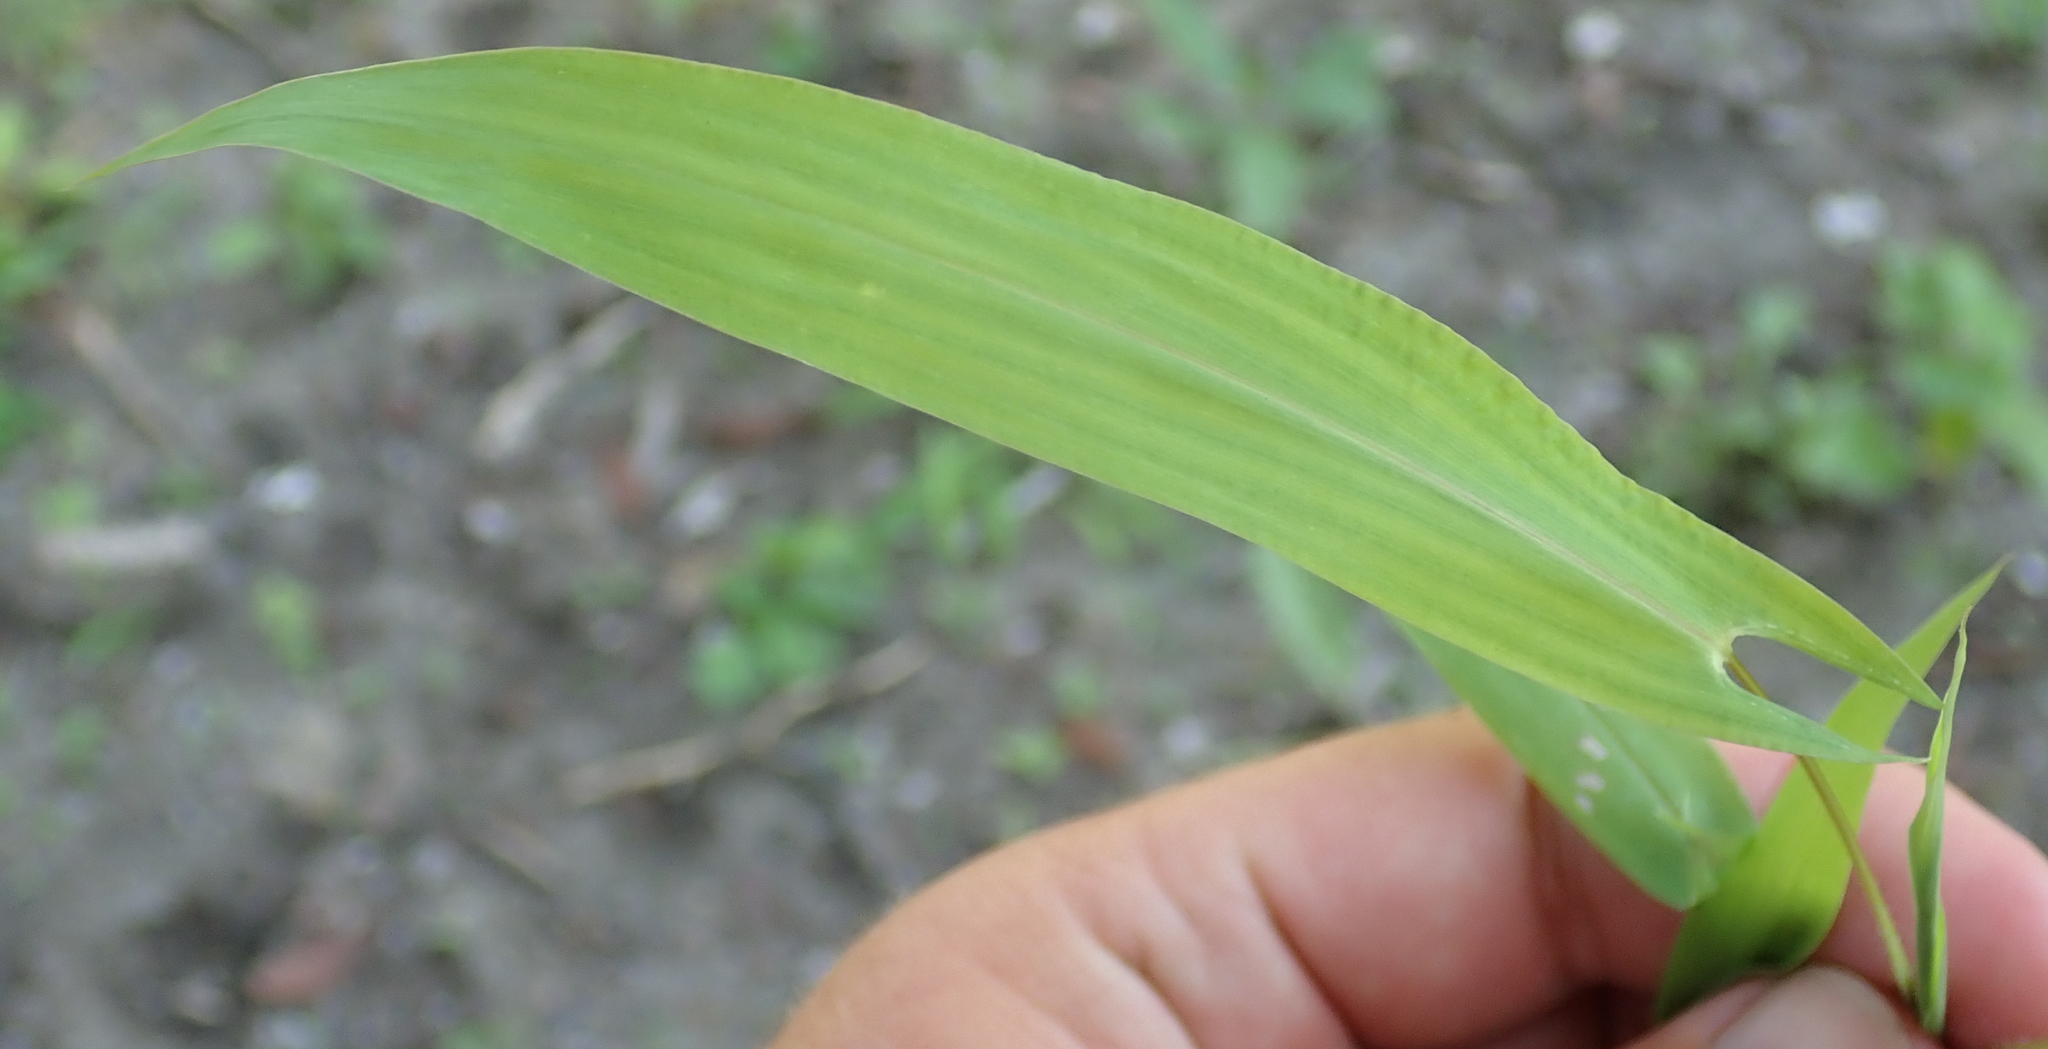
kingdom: Plantae
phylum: Tracheophyta
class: Liliopsida
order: Poales
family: Poaceae
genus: Setaria
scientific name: Setaria sagittifolia
